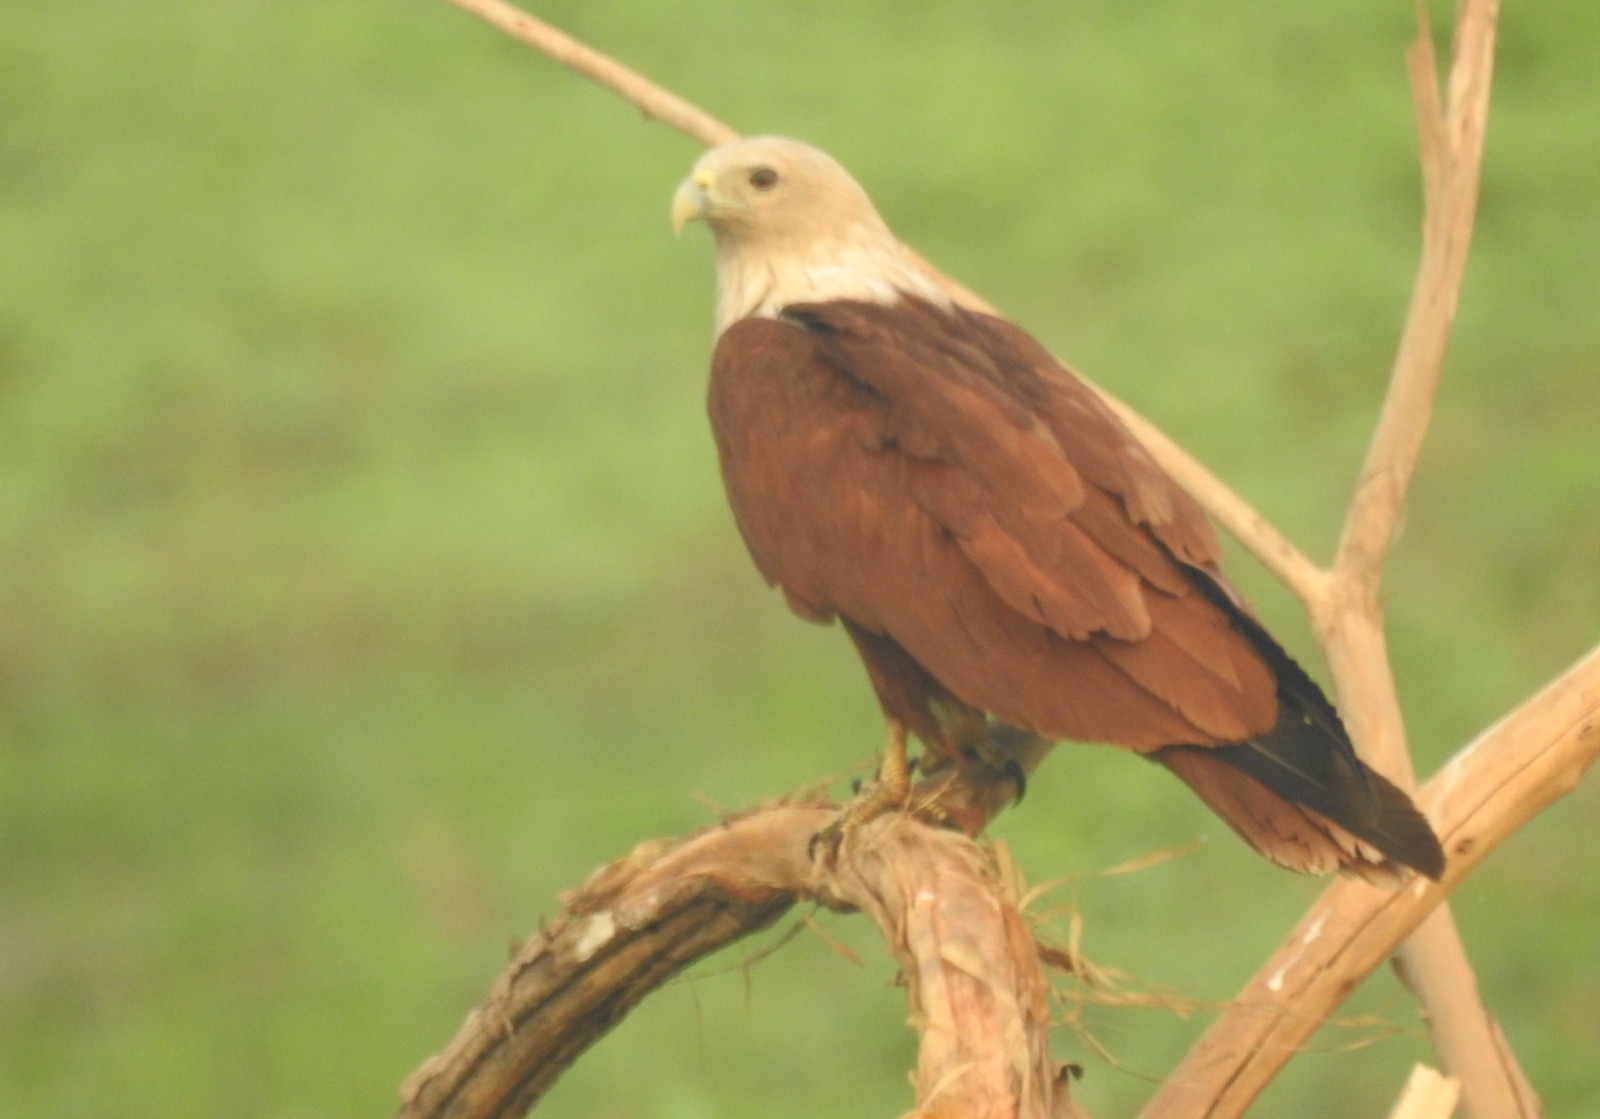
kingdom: Animalia
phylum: Chordata
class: Aves
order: Accipitriformes
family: Accipitridae
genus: Haliastur
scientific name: Haliastur indus
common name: Brahminy kite
